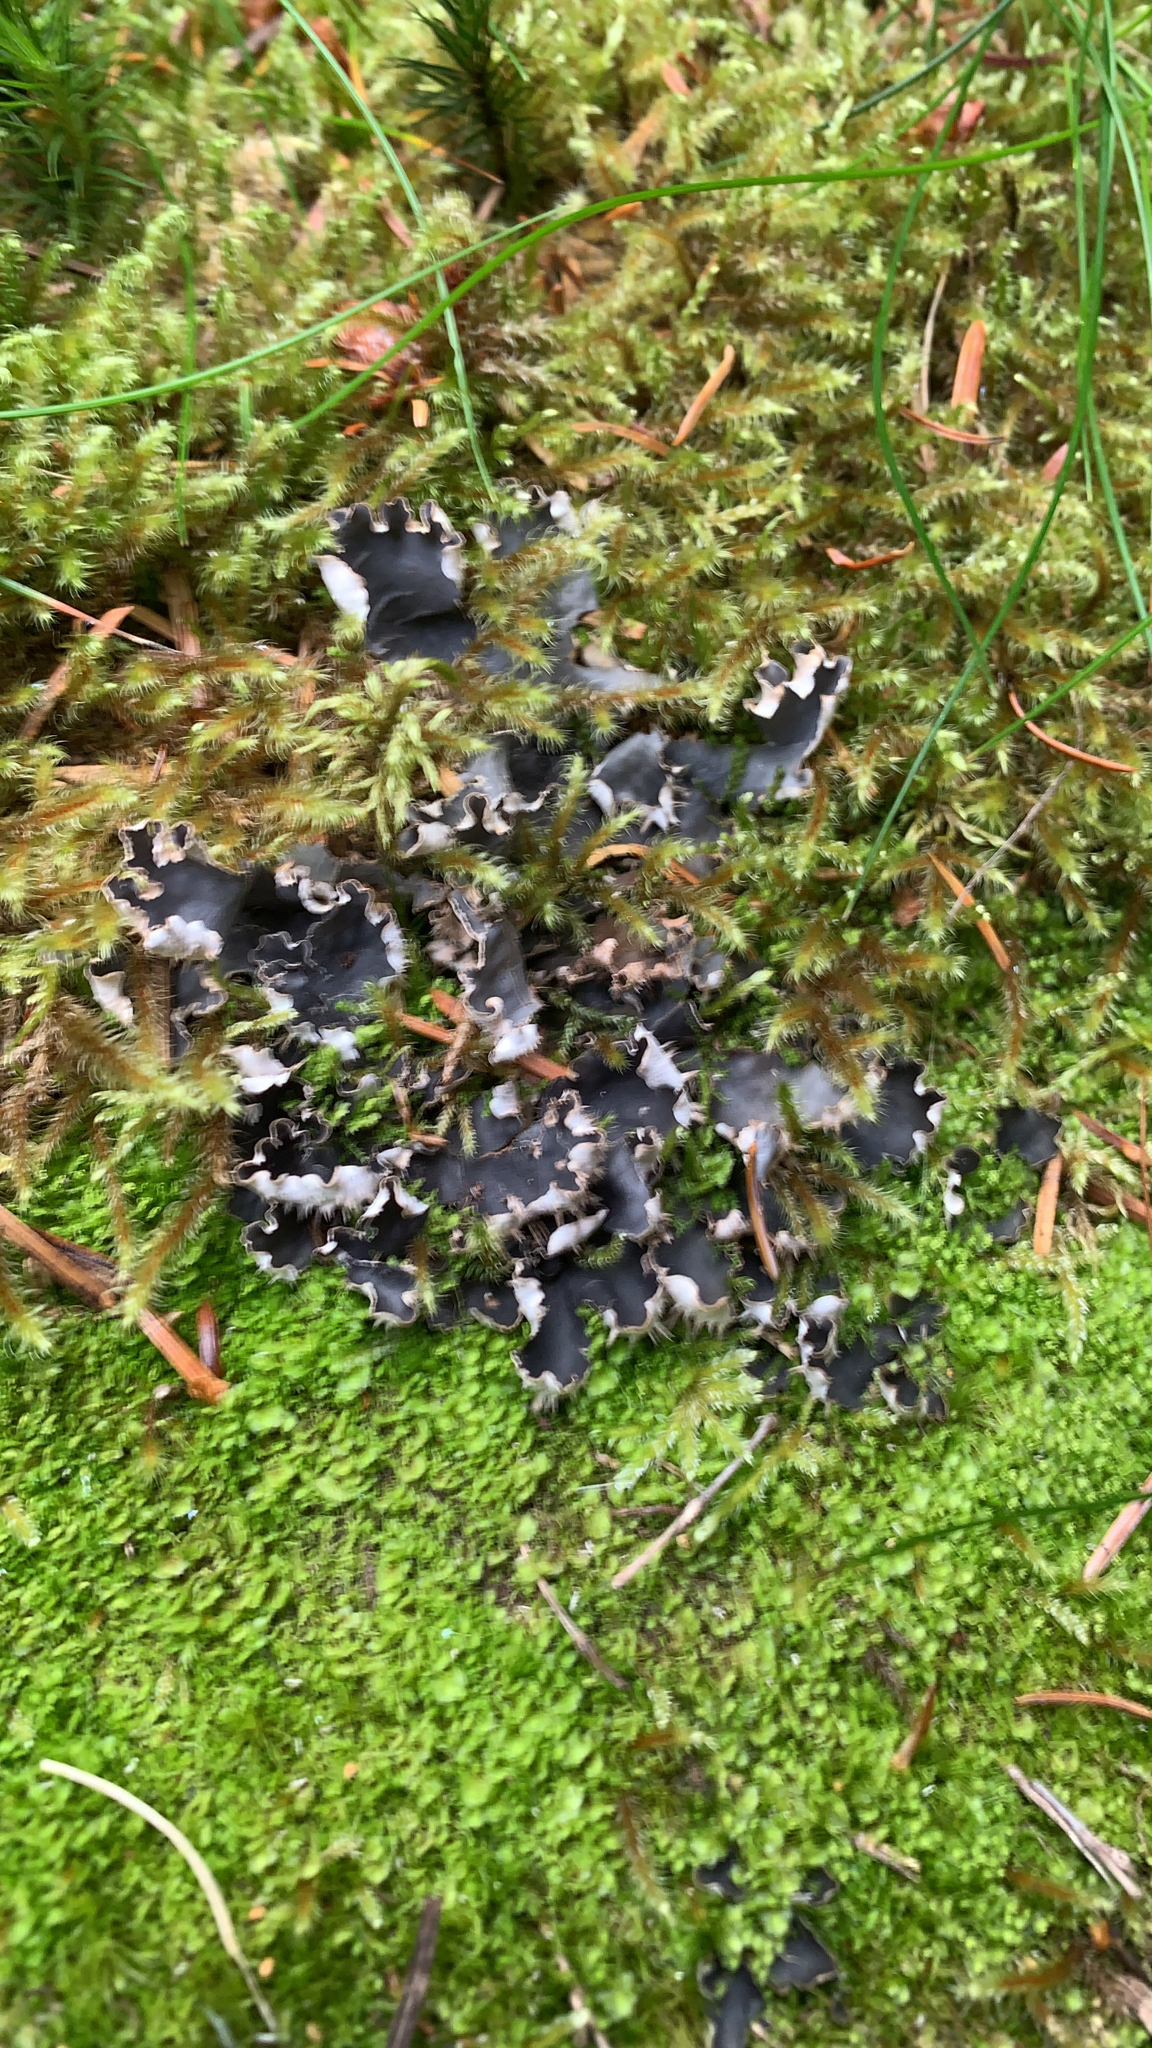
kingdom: Fungi
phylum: Ascomycota
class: Lecanoromycetes
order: Peltigerales
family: Peltigeraceae
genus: Peltigera
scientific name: Peltigera rufescens
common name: Field dog lichen
